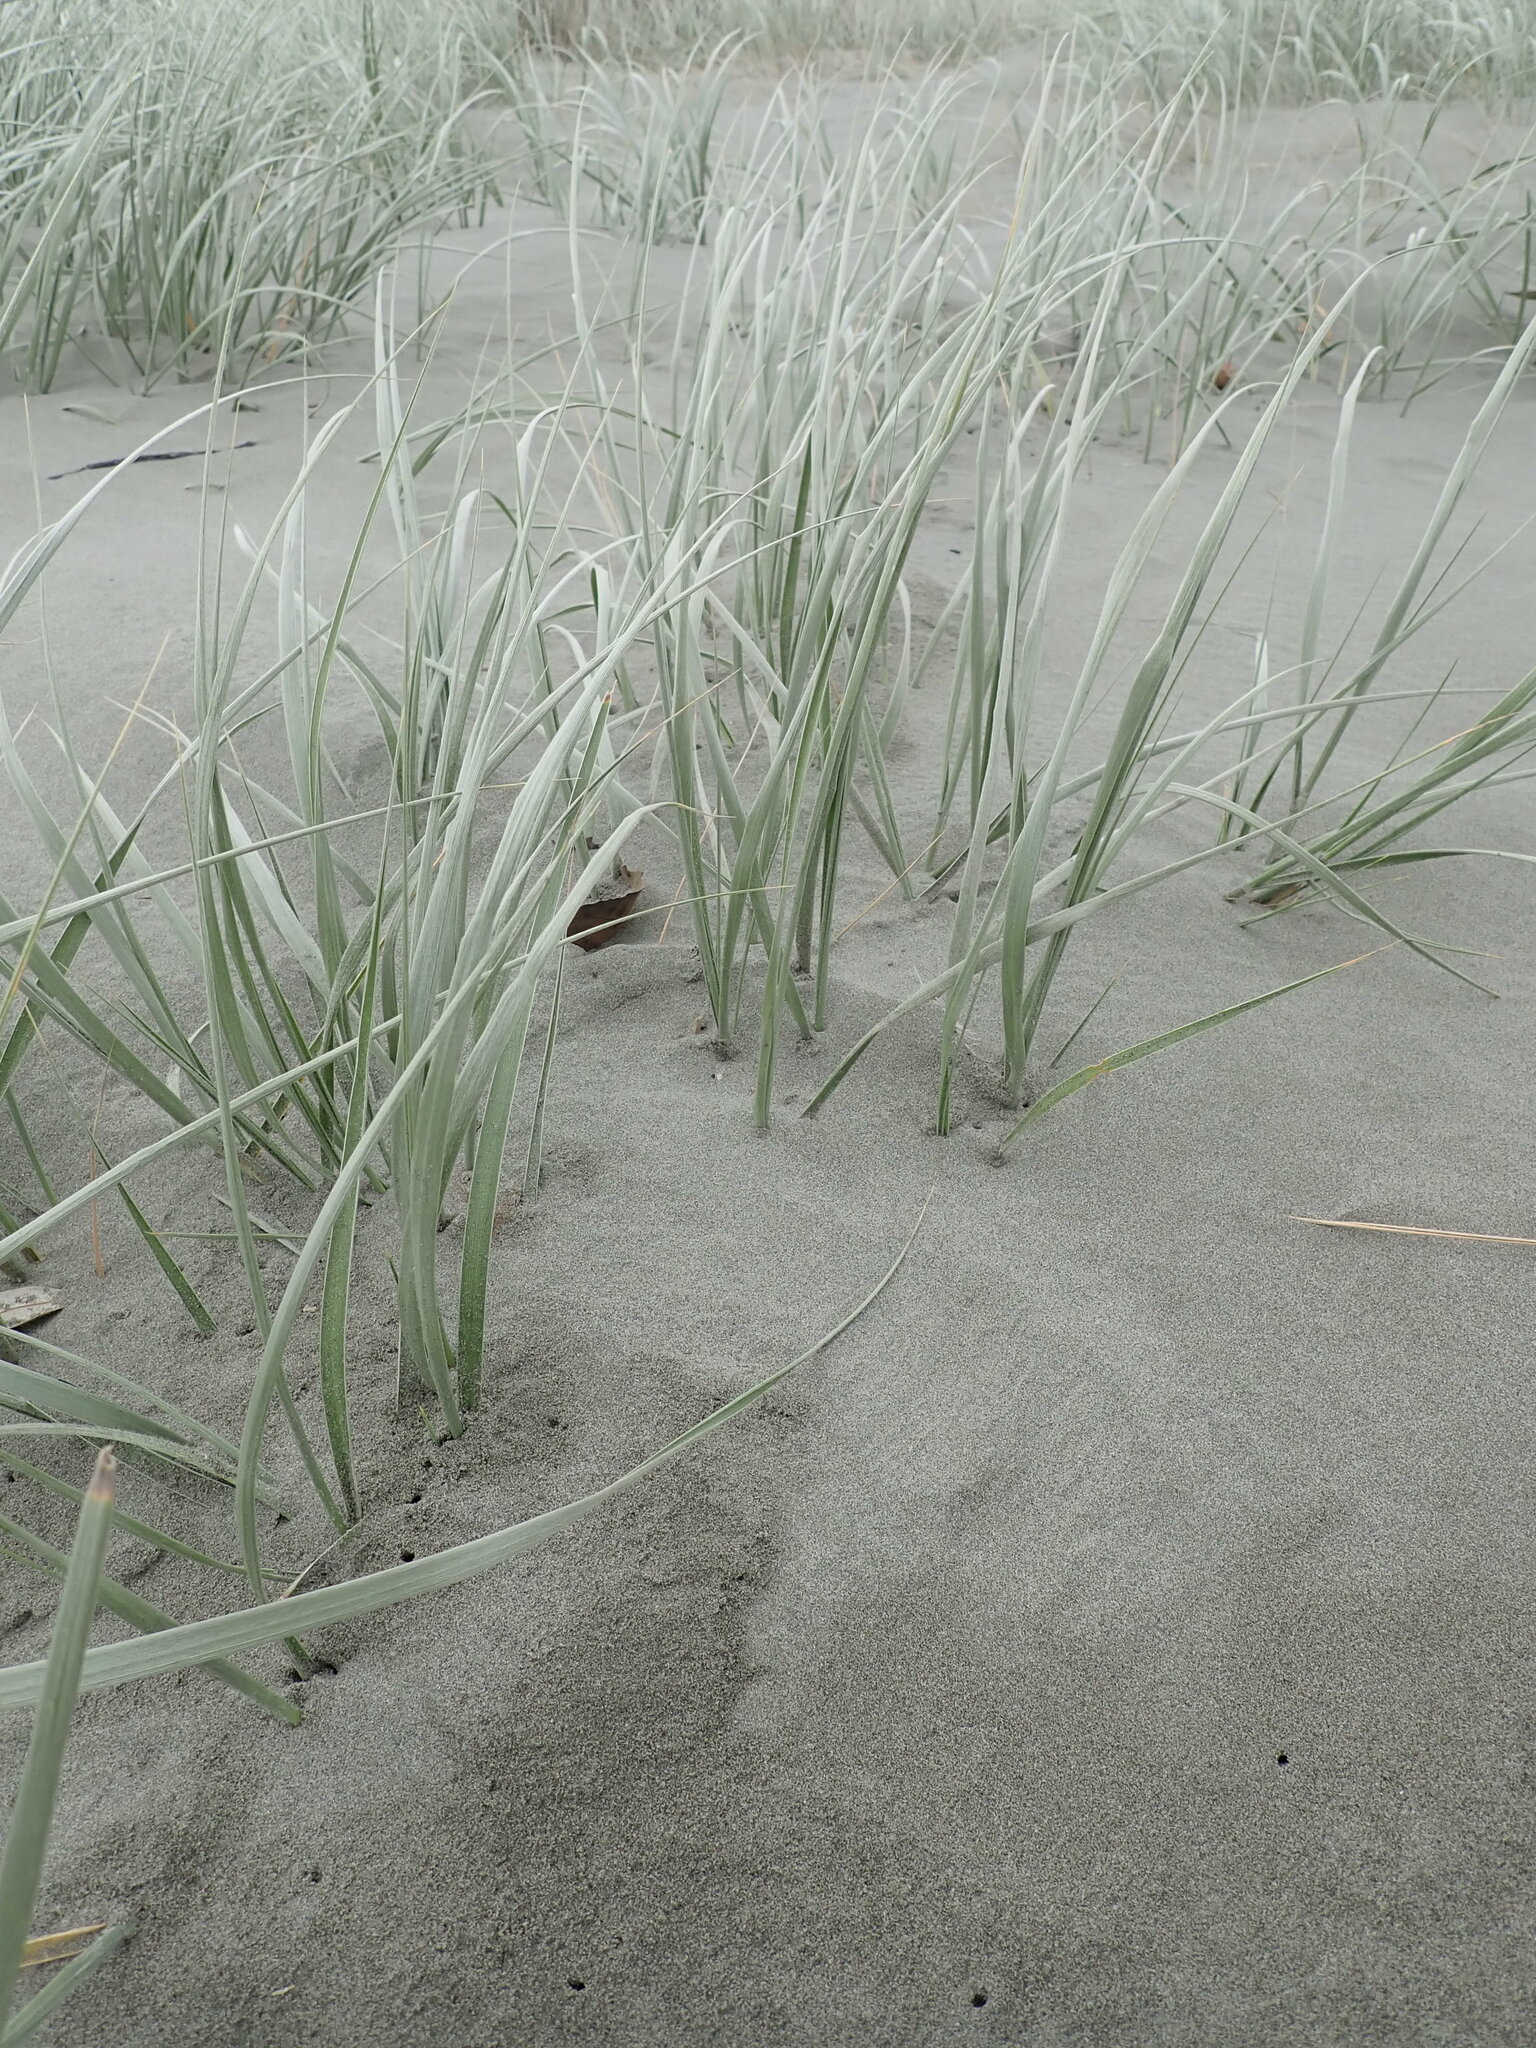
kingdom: Plantae
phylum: Tracheophyta
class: Liliopsida
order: Poales
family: Poaceae
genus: Spinifex
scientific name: Spinifex sericeus
